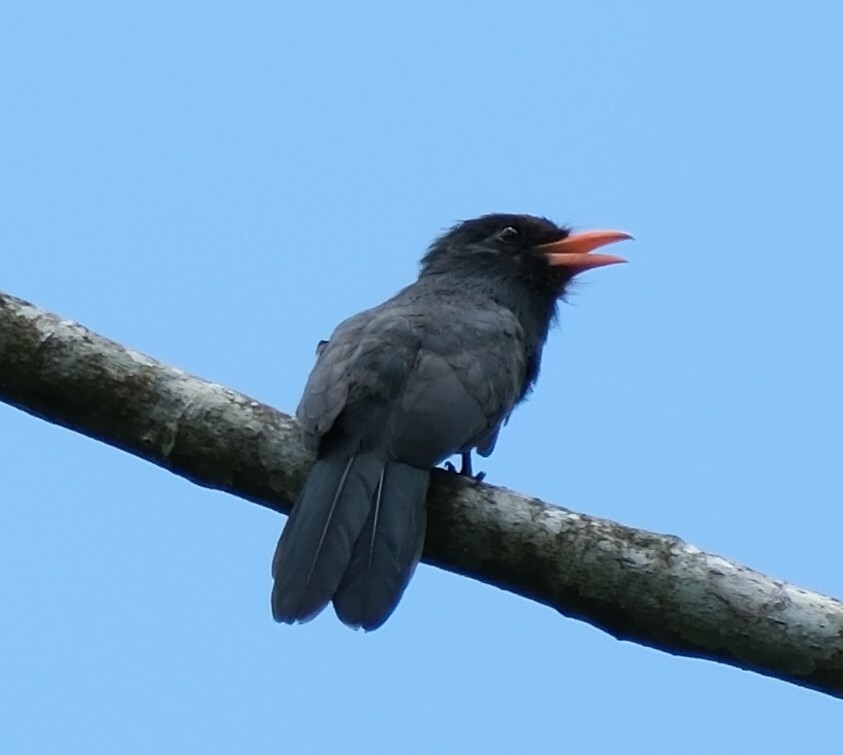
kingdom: Animalia
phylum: Chordata
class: Aves
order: Piciformes
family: Bucconidae
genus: Monasa
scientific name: Monasa nigrifrons
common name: Black-fronted nunbird
